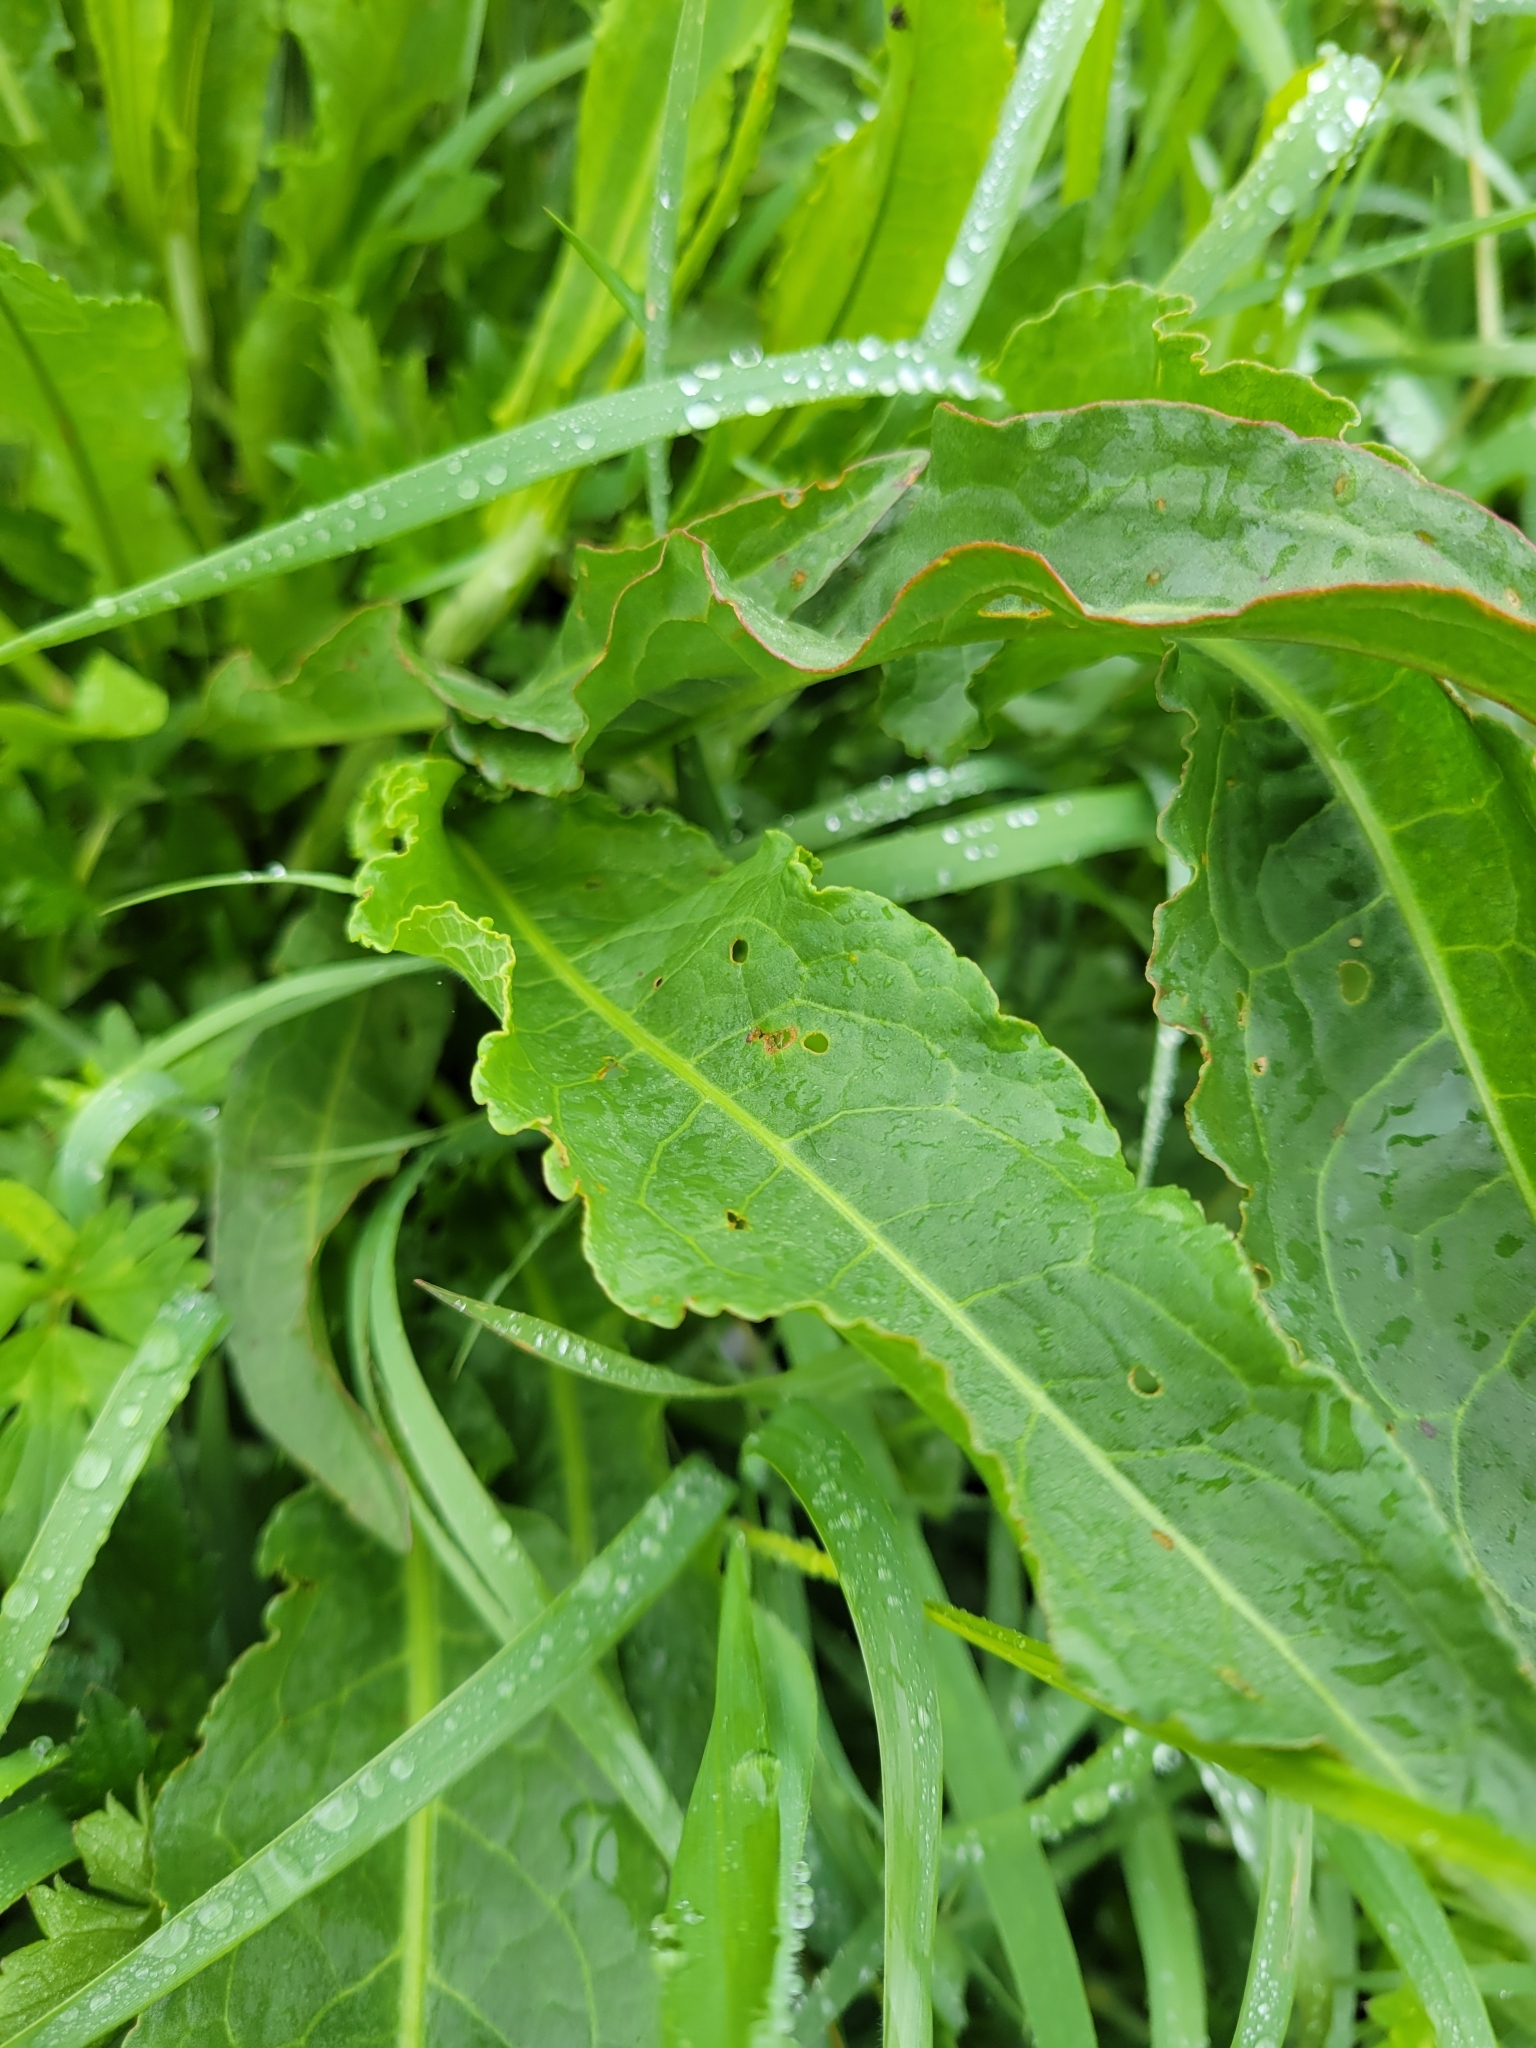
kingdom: Plantae
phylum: Tracheophyta
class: Magnoliopsida
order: Caryophyllales
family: Polygonaceae
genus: Rumex
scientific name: Rumex crispus
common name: Curled dock
